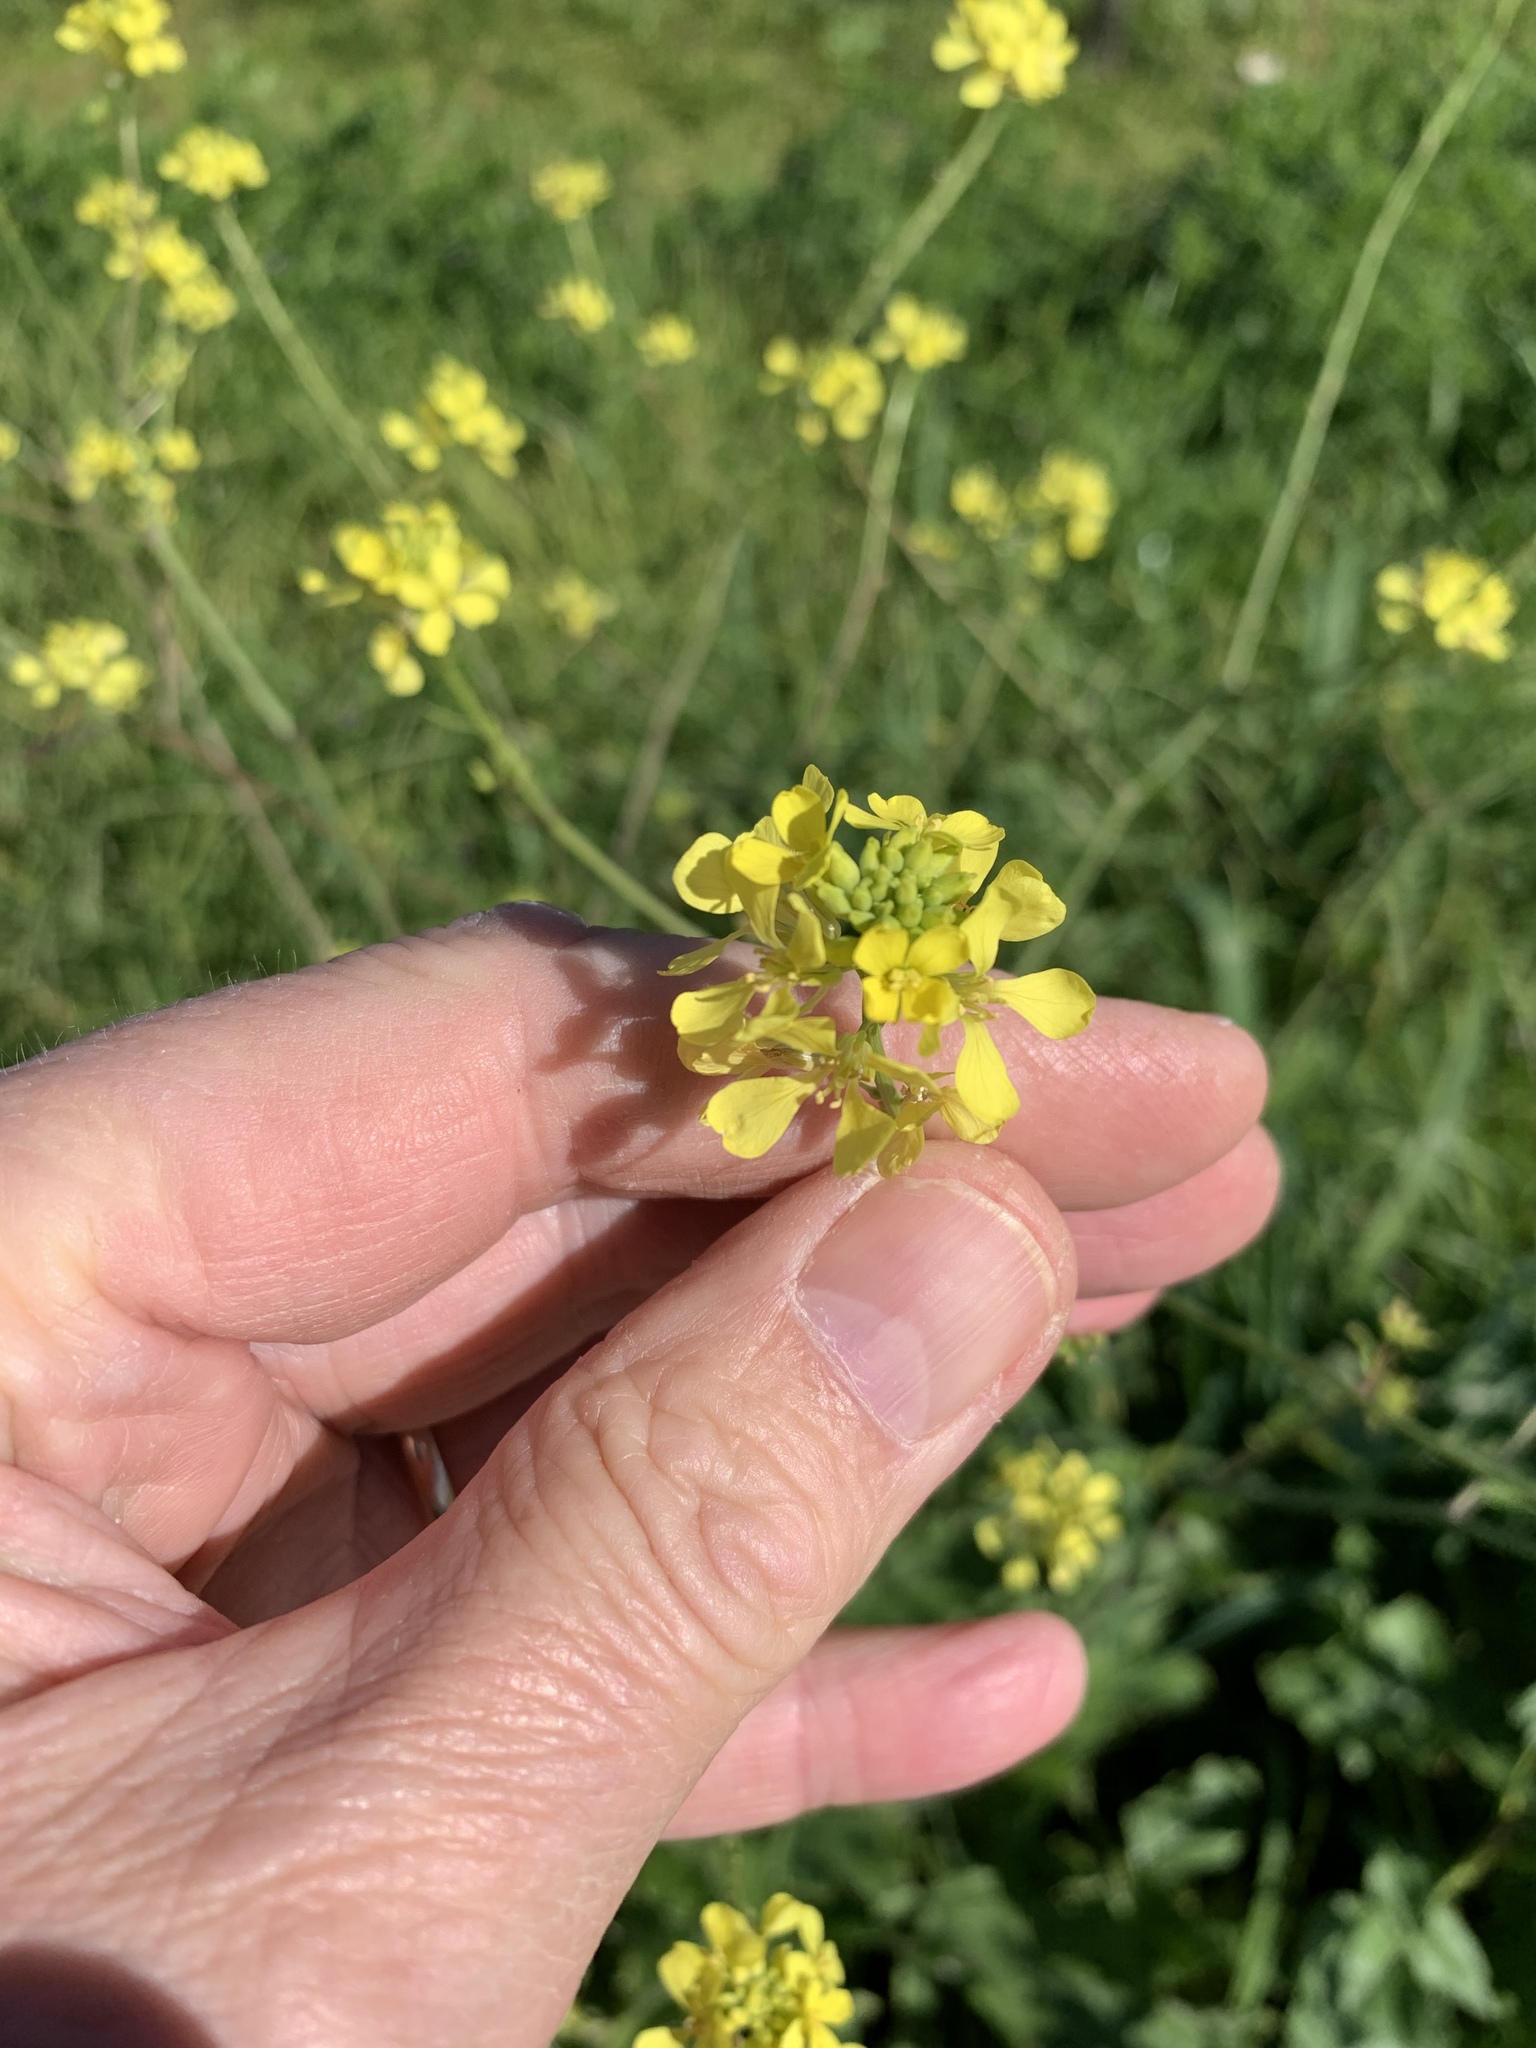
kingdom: Plantae
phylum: Tracheophyta
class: Magnoliopsida
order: Brassicales
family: Brassicaceae
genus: Rapistrum
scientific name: Rapistrum rugosum
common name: Annual bastardcabbage
